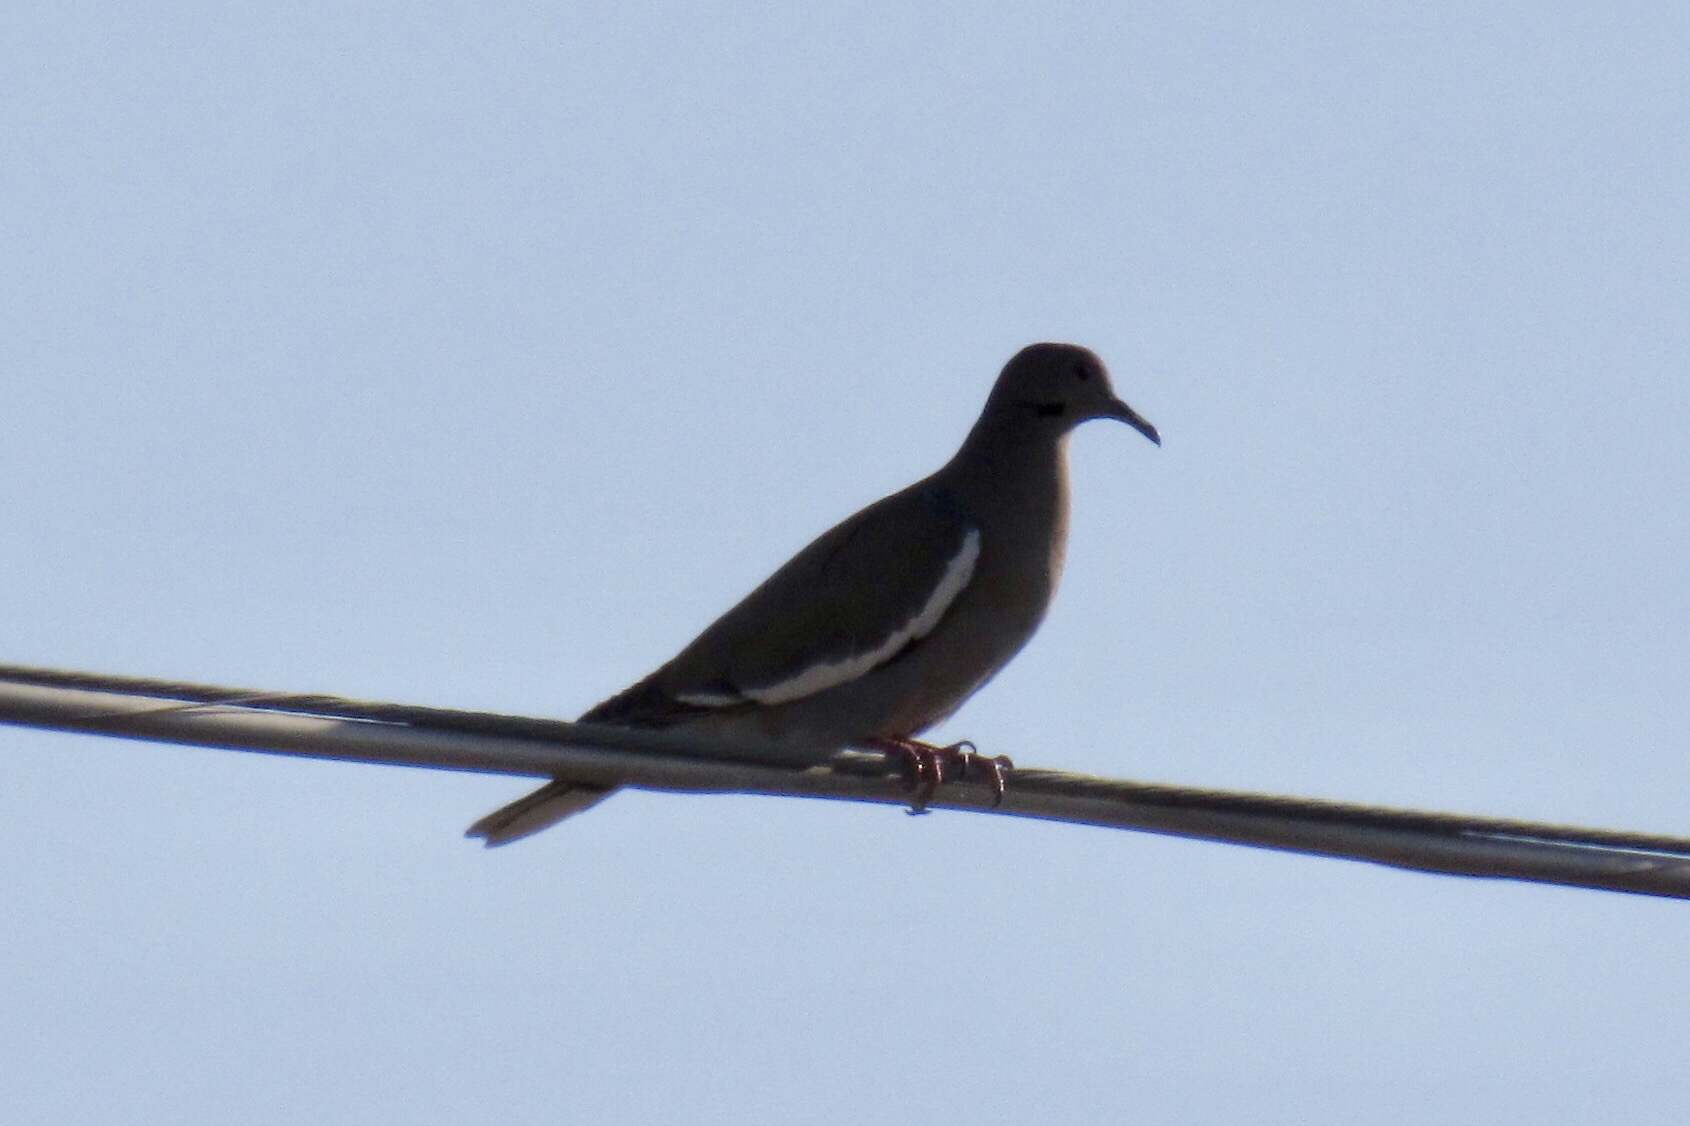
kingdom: Animalia
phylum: Chordata
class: Aves
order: Columbiformes
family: Columbidae
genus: Zenaida
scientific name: Zenaida asiatica
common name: White-winged dove
